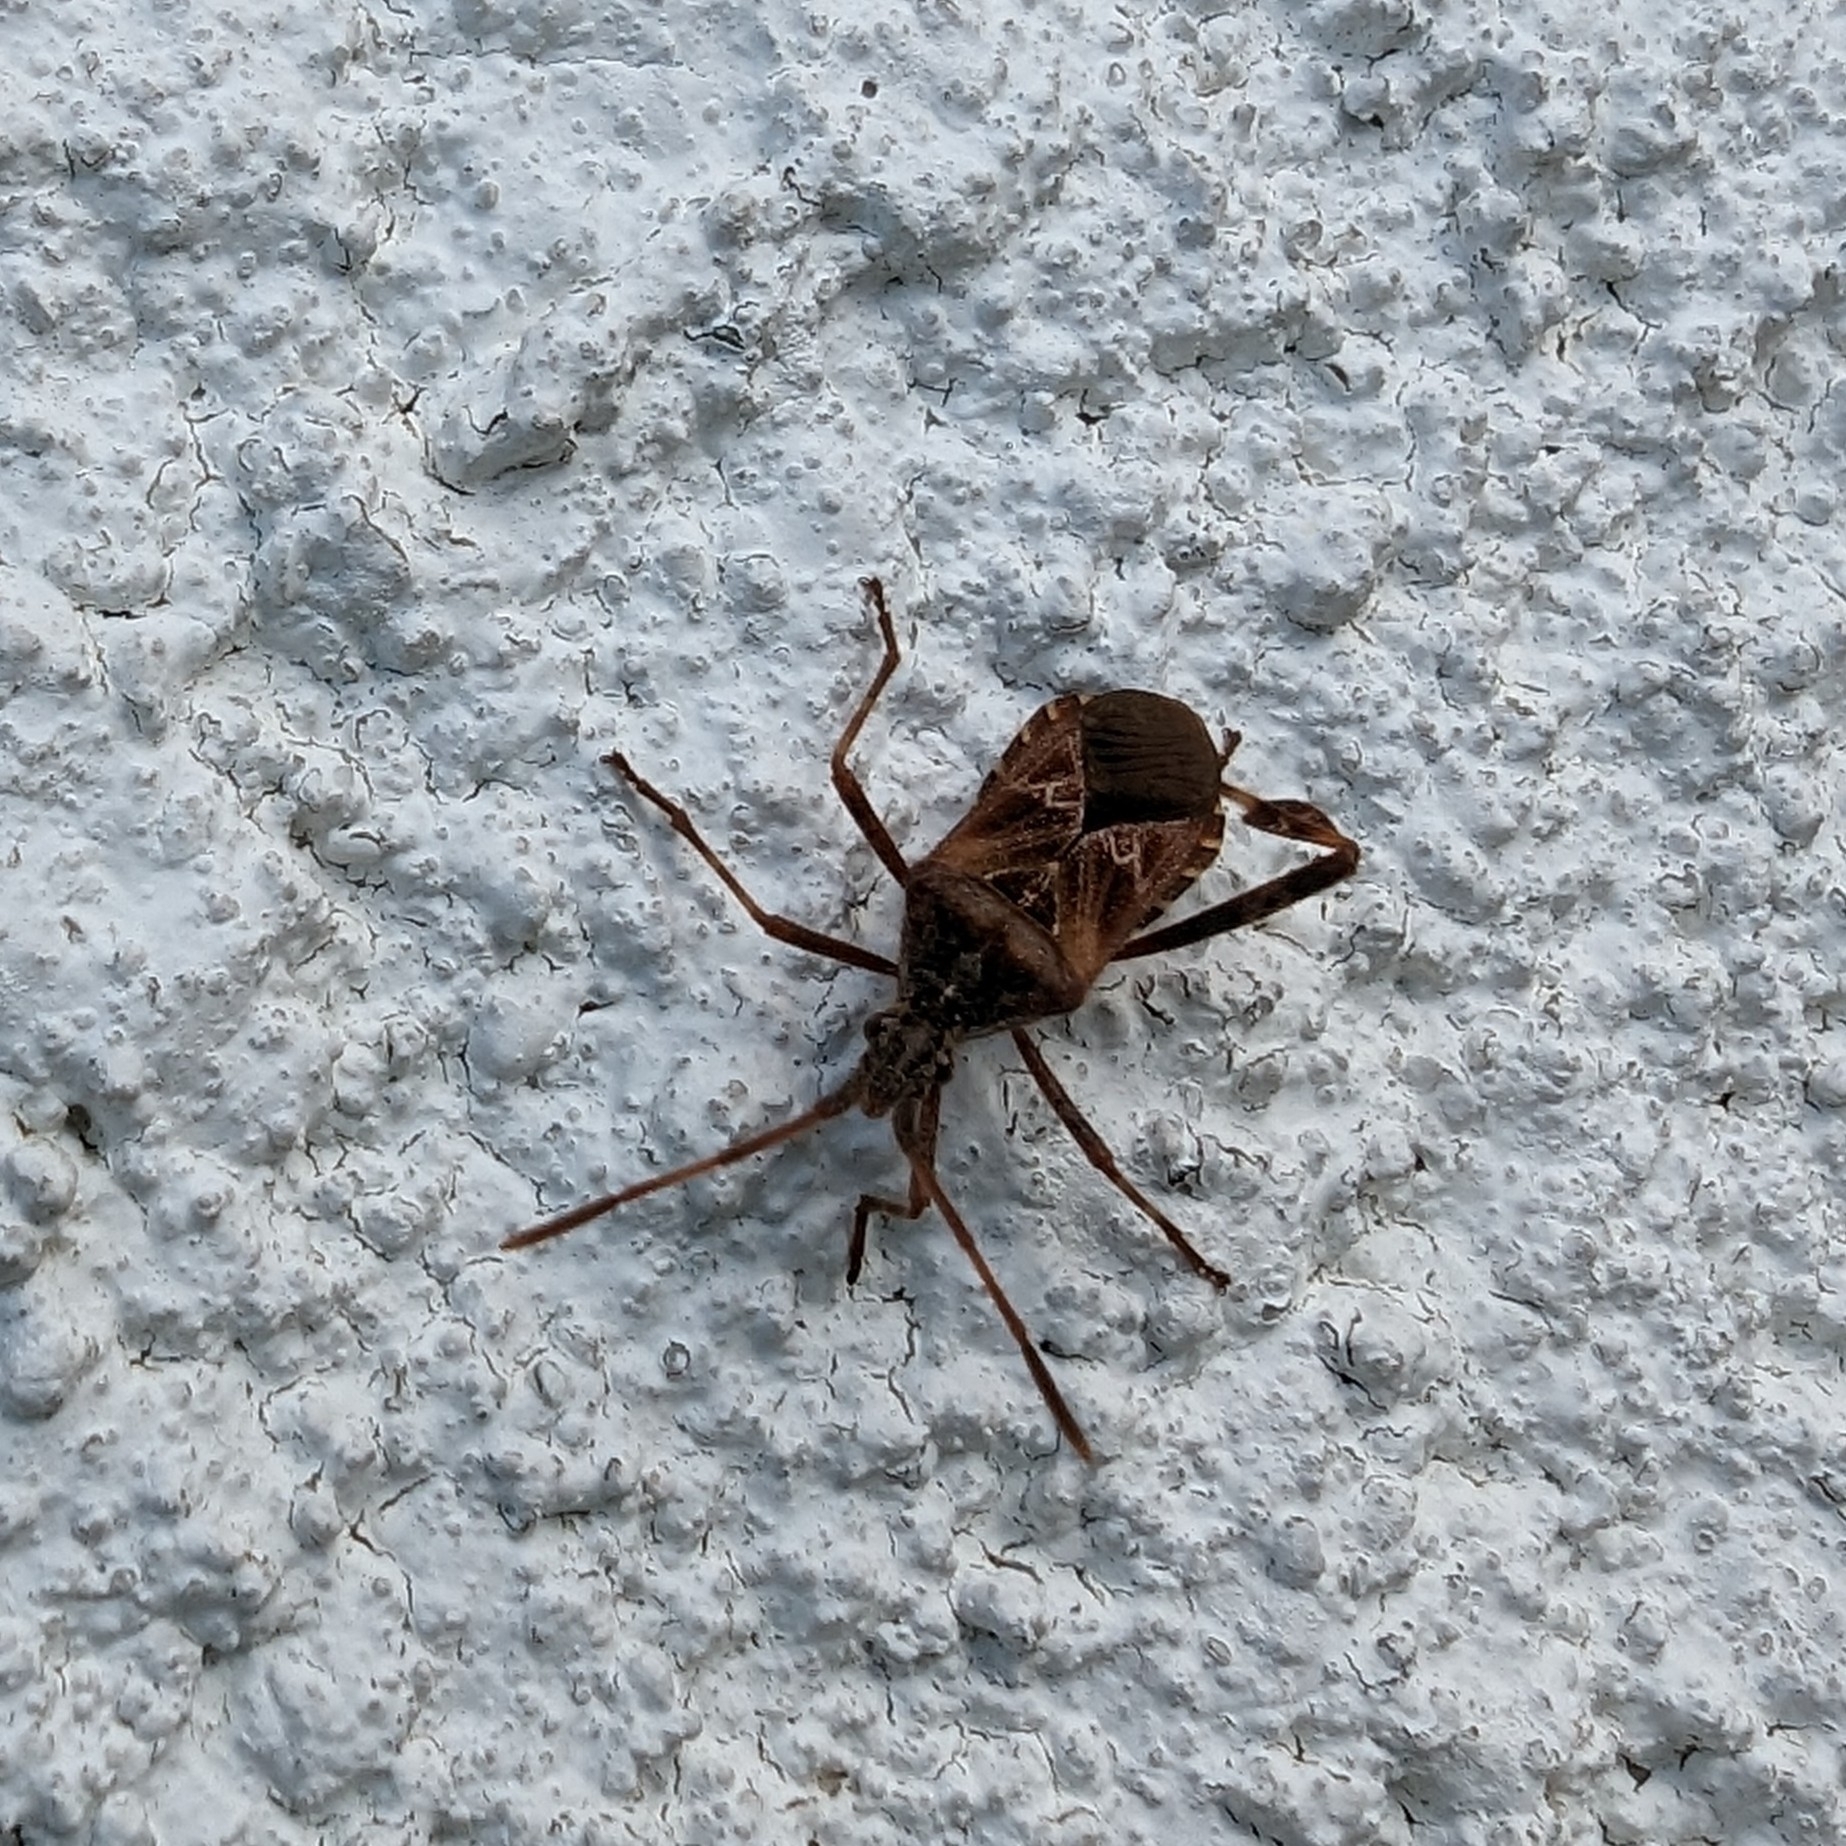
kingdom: Animalia
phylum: Arthropoda
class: Insecta
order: Hemiptera
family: Coreidae
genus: Leptoglossus
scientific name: Leptoglossus occidentalis
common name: Western conifer-seed bug
